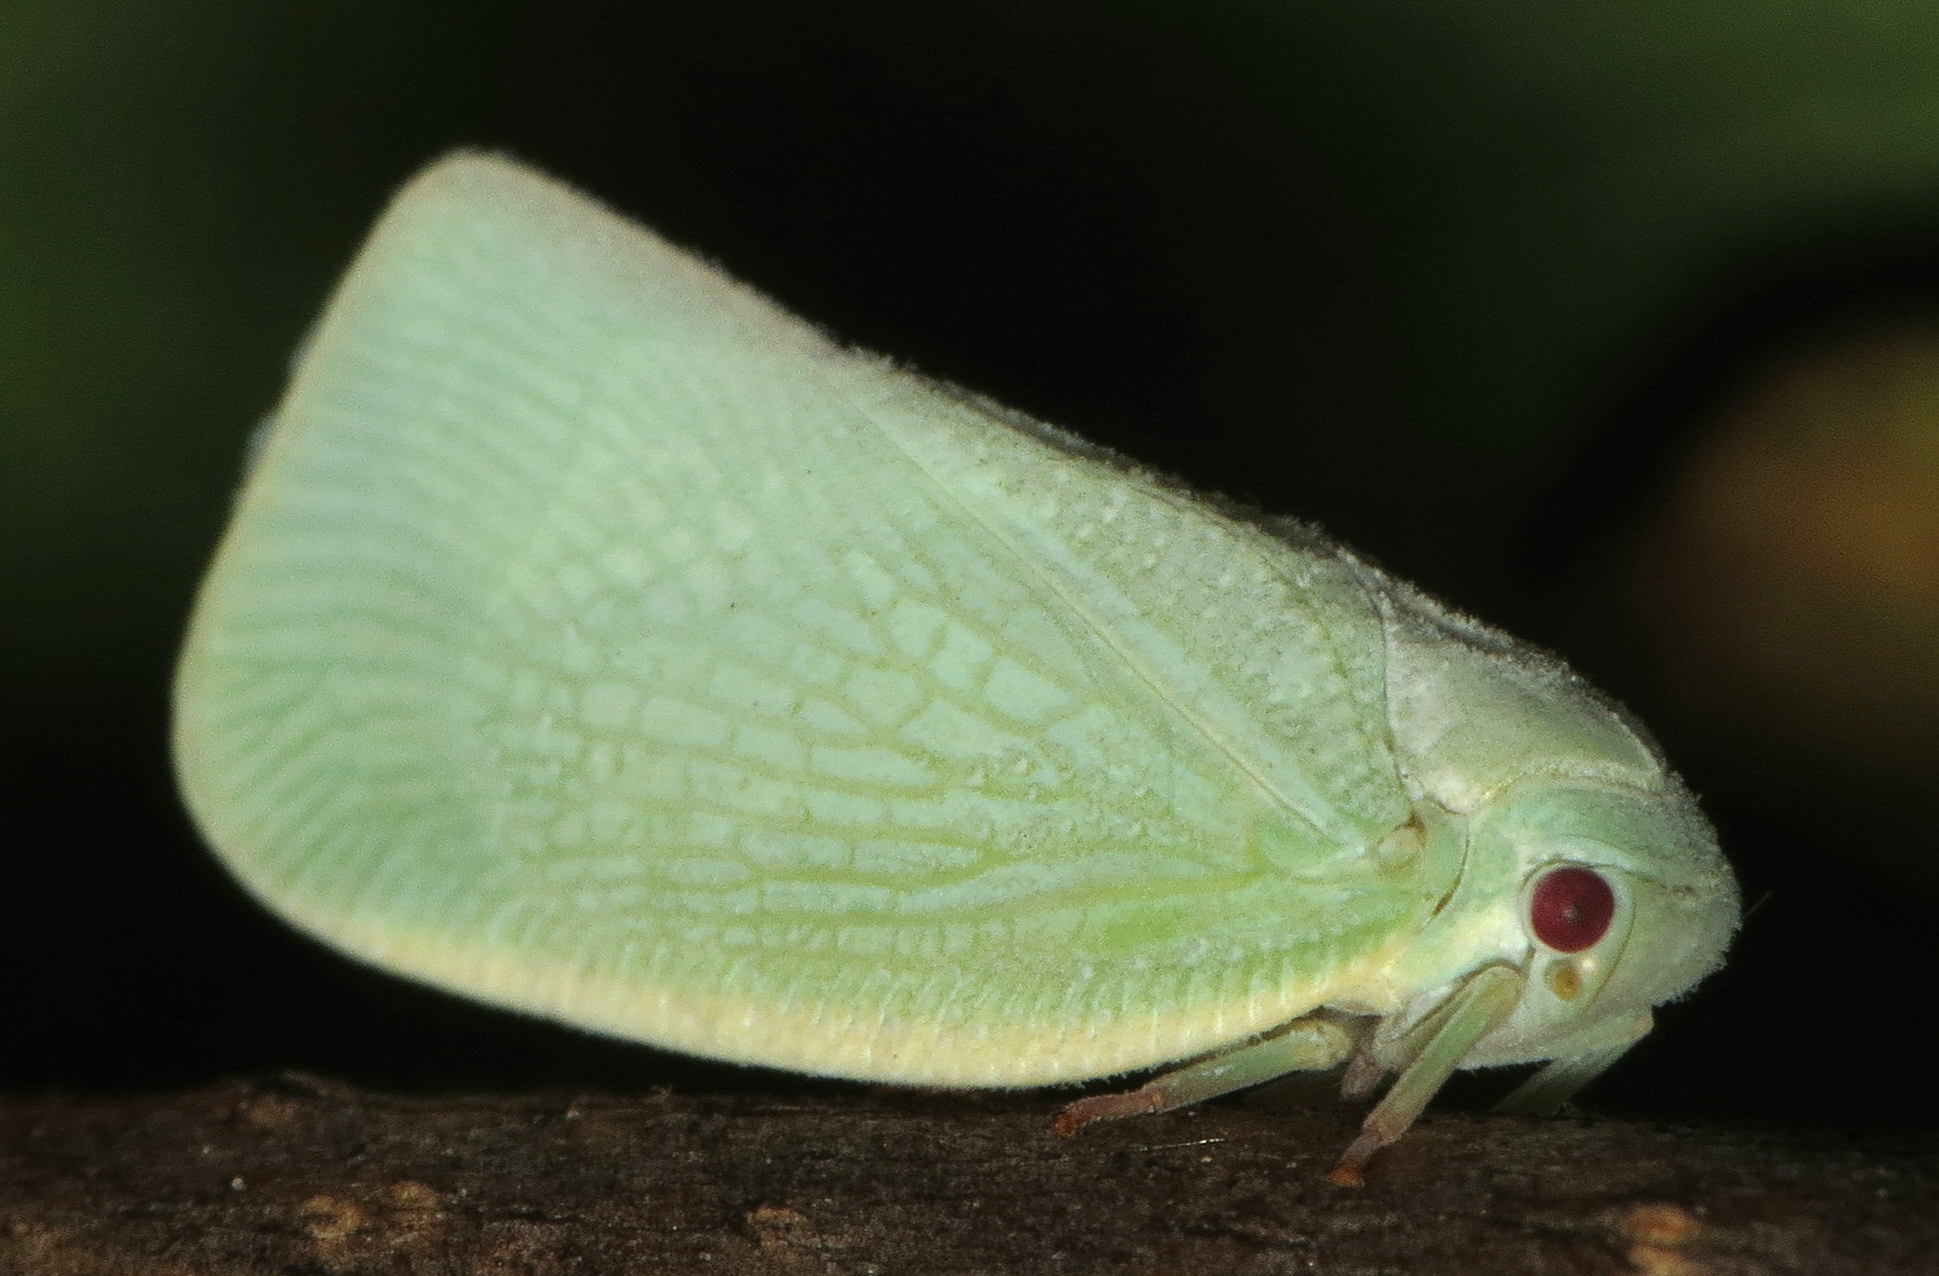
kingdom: Animalia
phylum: Arthropoda
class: Insecta
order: Hemiptera
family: Flatidae
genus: Flatormenis
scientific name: Flatormenis proxima
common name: Northern flatid planthopper
